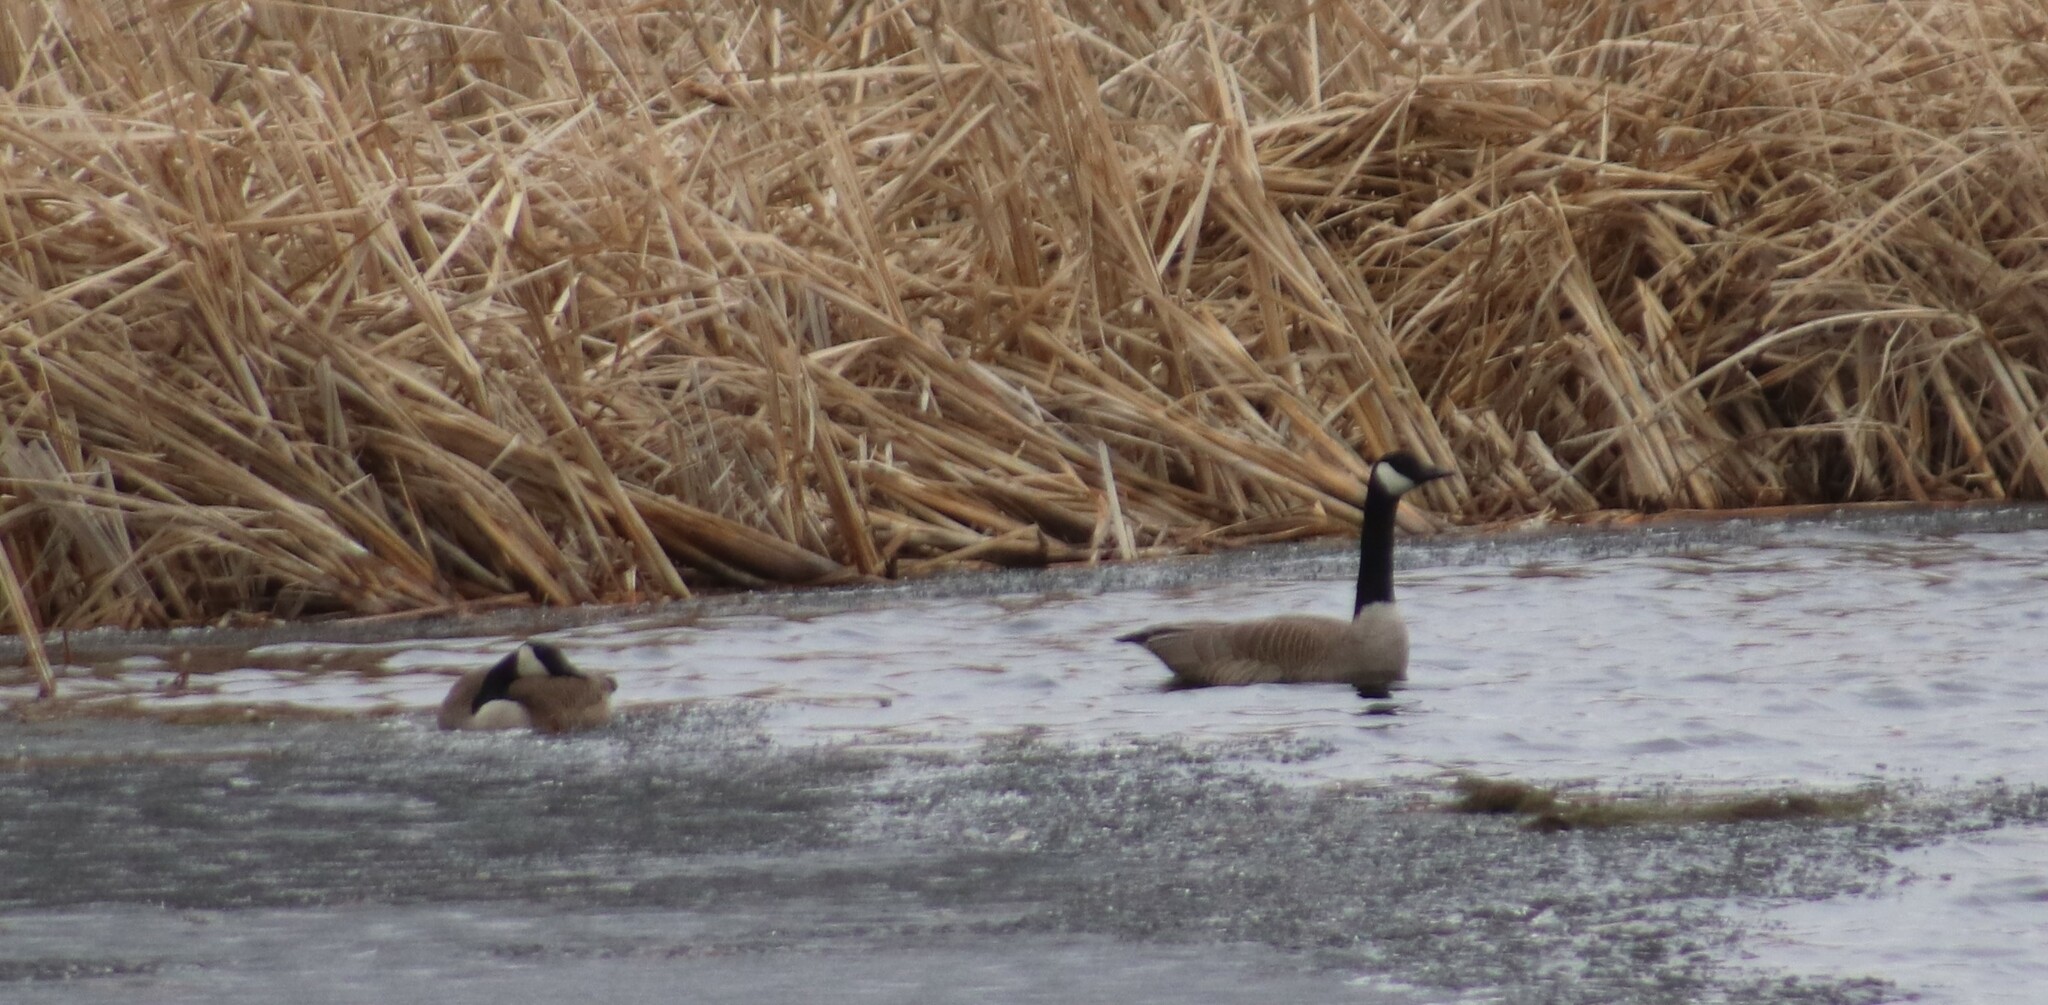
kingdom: Animalia
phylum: Chordata
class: Aves
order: Anseriformes
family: Anatidae
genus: Branta
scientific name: Branta canadensis
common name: Canada goose
